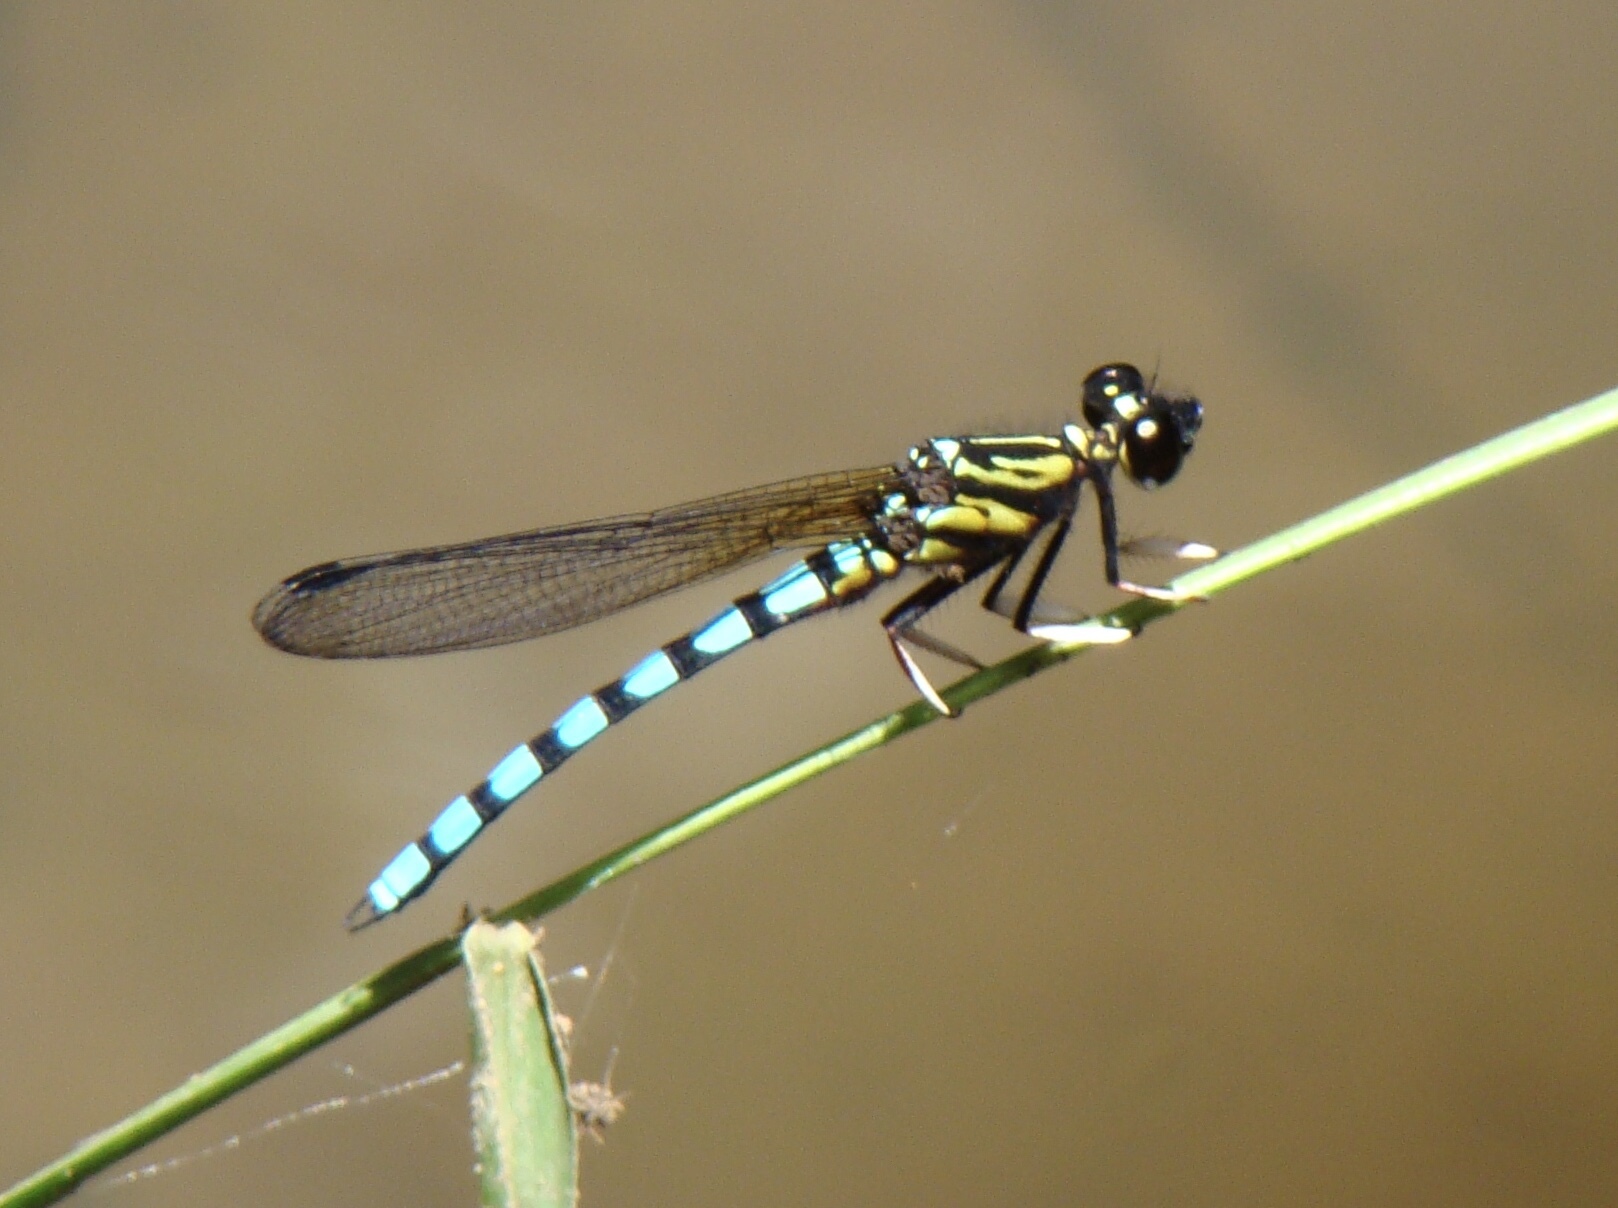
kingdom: Animalia
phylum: Arthropoda
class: Insecta
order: Odonata
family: Chlorocyphidae
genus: Platycypha
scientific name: Platycypha lacustris
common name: Forest jewel
